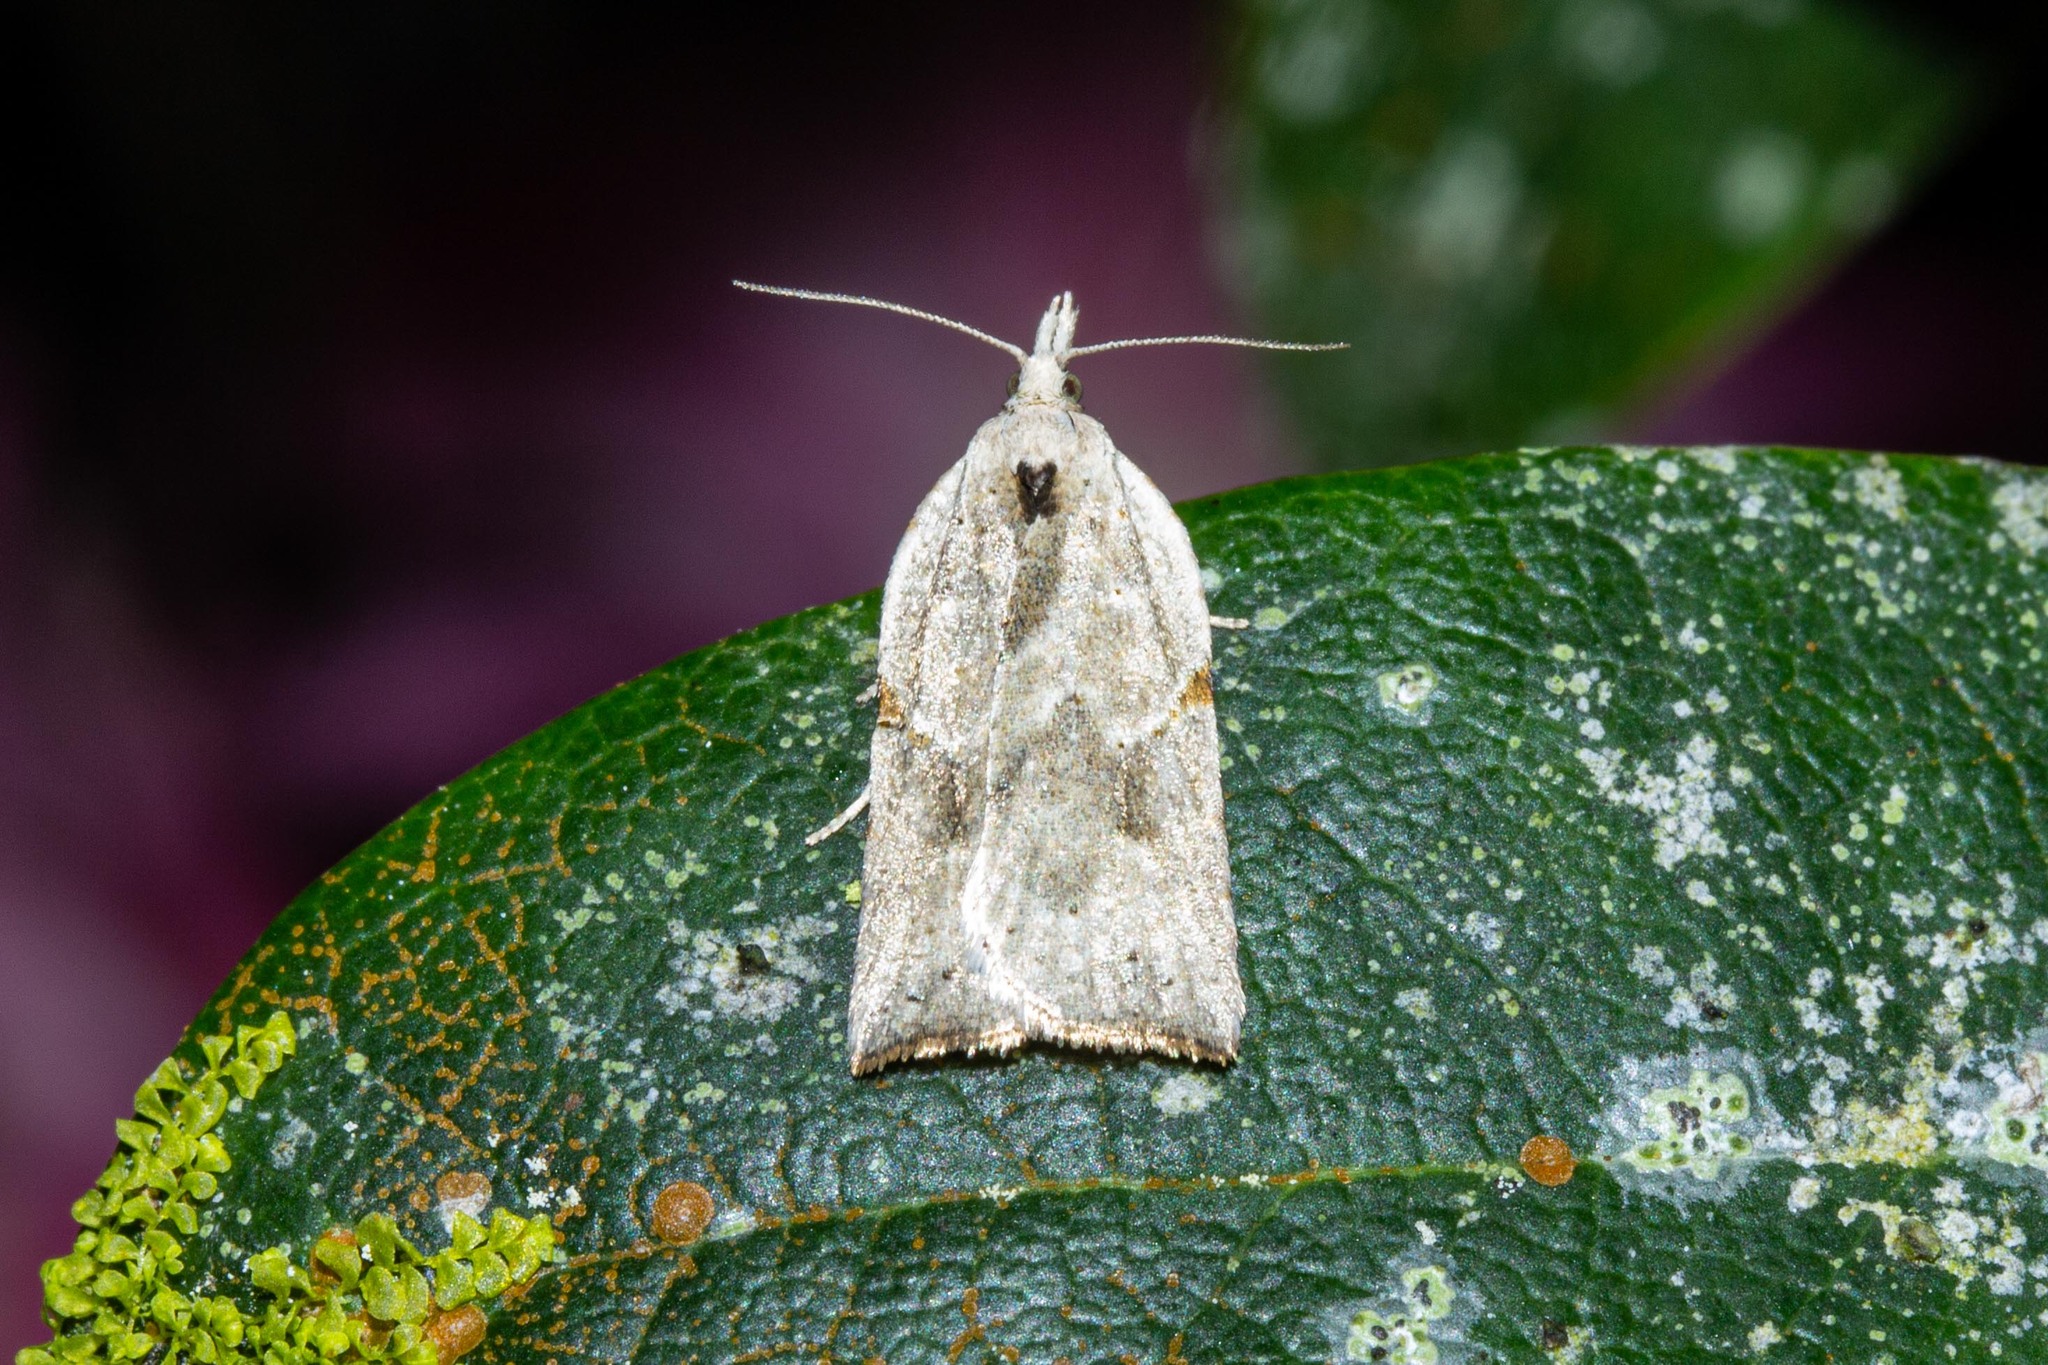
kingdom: Animalia
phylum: Arthropoda
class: Insecta
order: Lepidoptera
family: Tortricidae
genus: Leucotenes
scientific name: Leucotenes coprosmae
